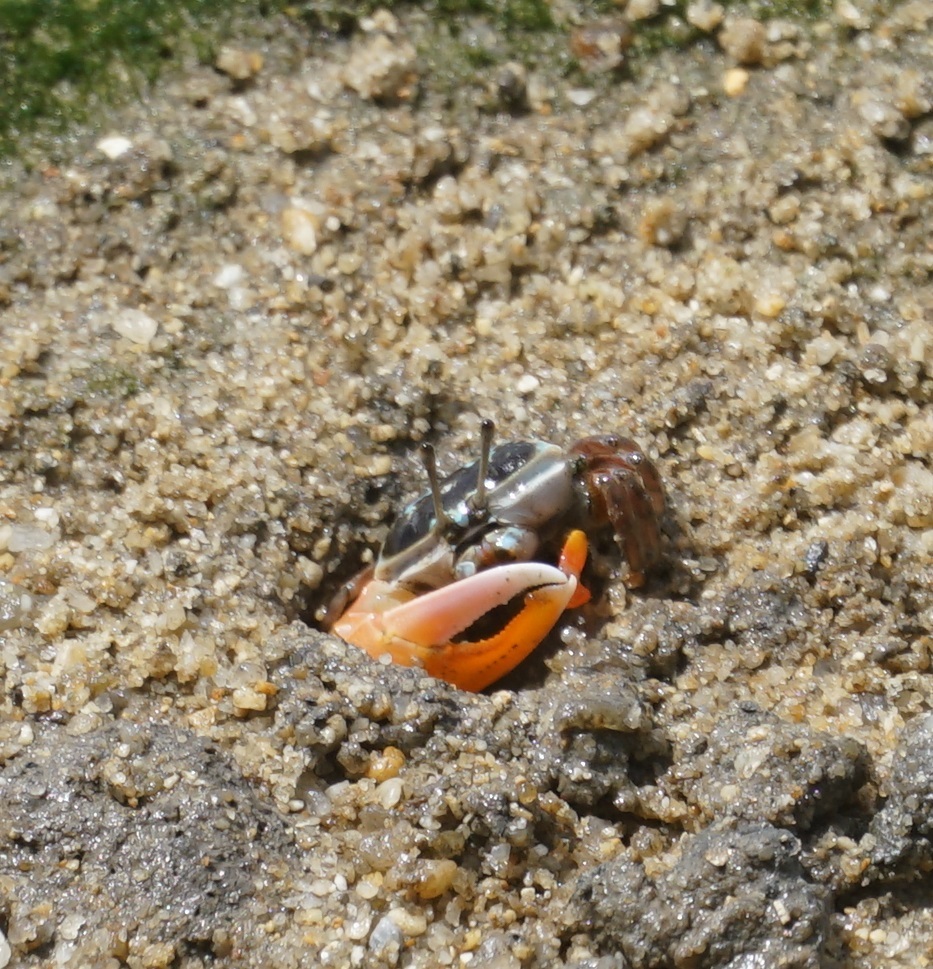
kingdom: Animalia
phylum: Arthropoda
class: Malacostraca
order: Decapoda
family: Ocypodidae
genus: Gelasimus
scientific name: Gelasimus vomeris
